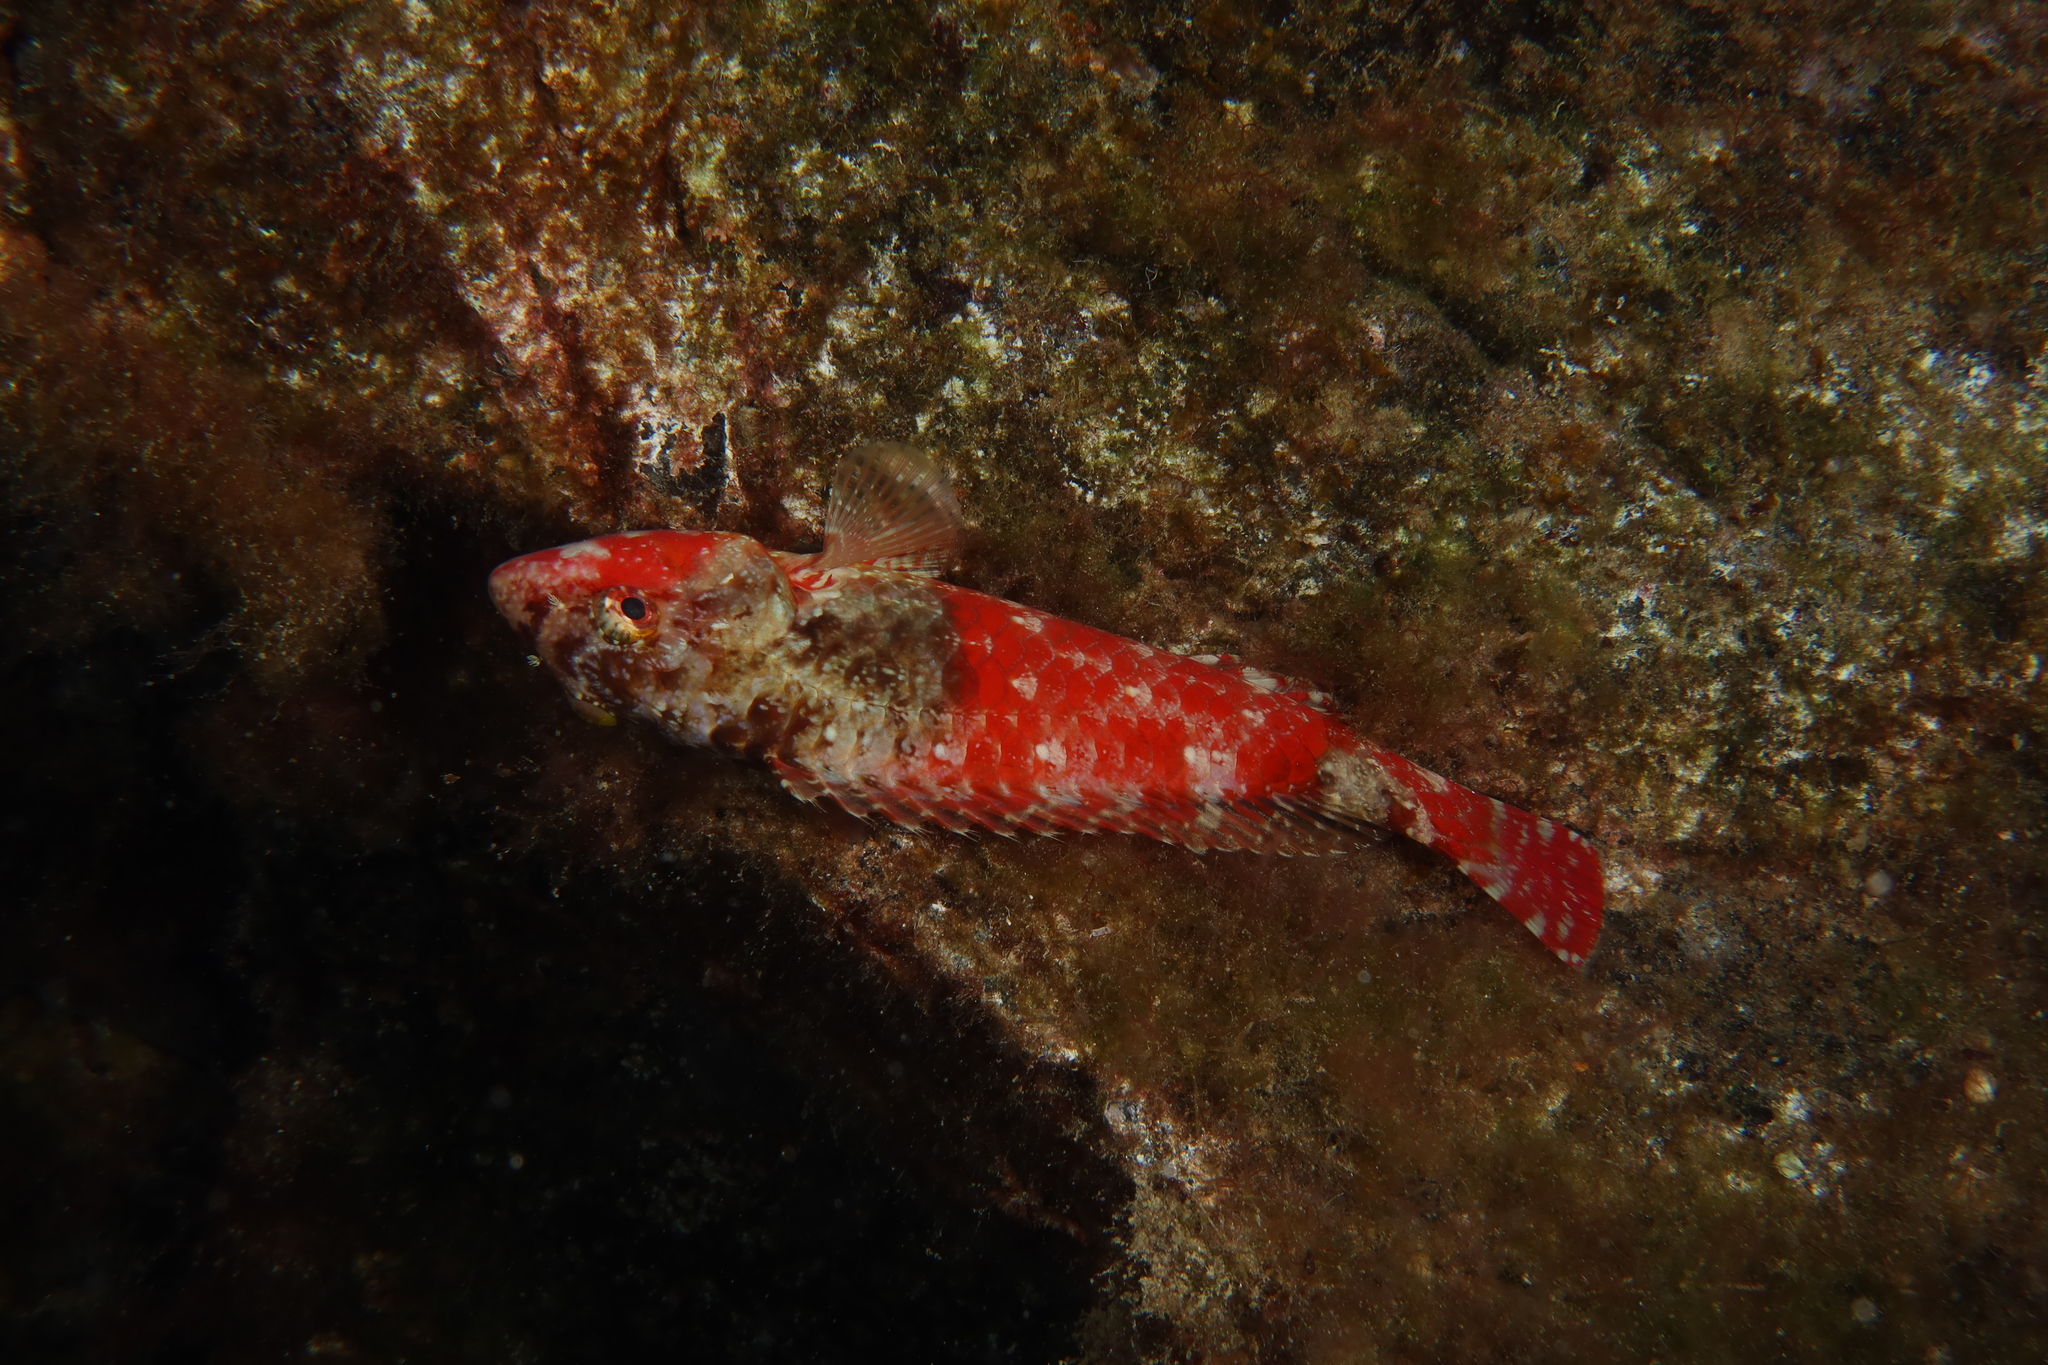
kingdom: Animalia
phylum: Chordata
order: Perciformes
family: Scaridae
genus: Sparisoma
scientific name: Sparisoma cretense
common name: Parrotfish
